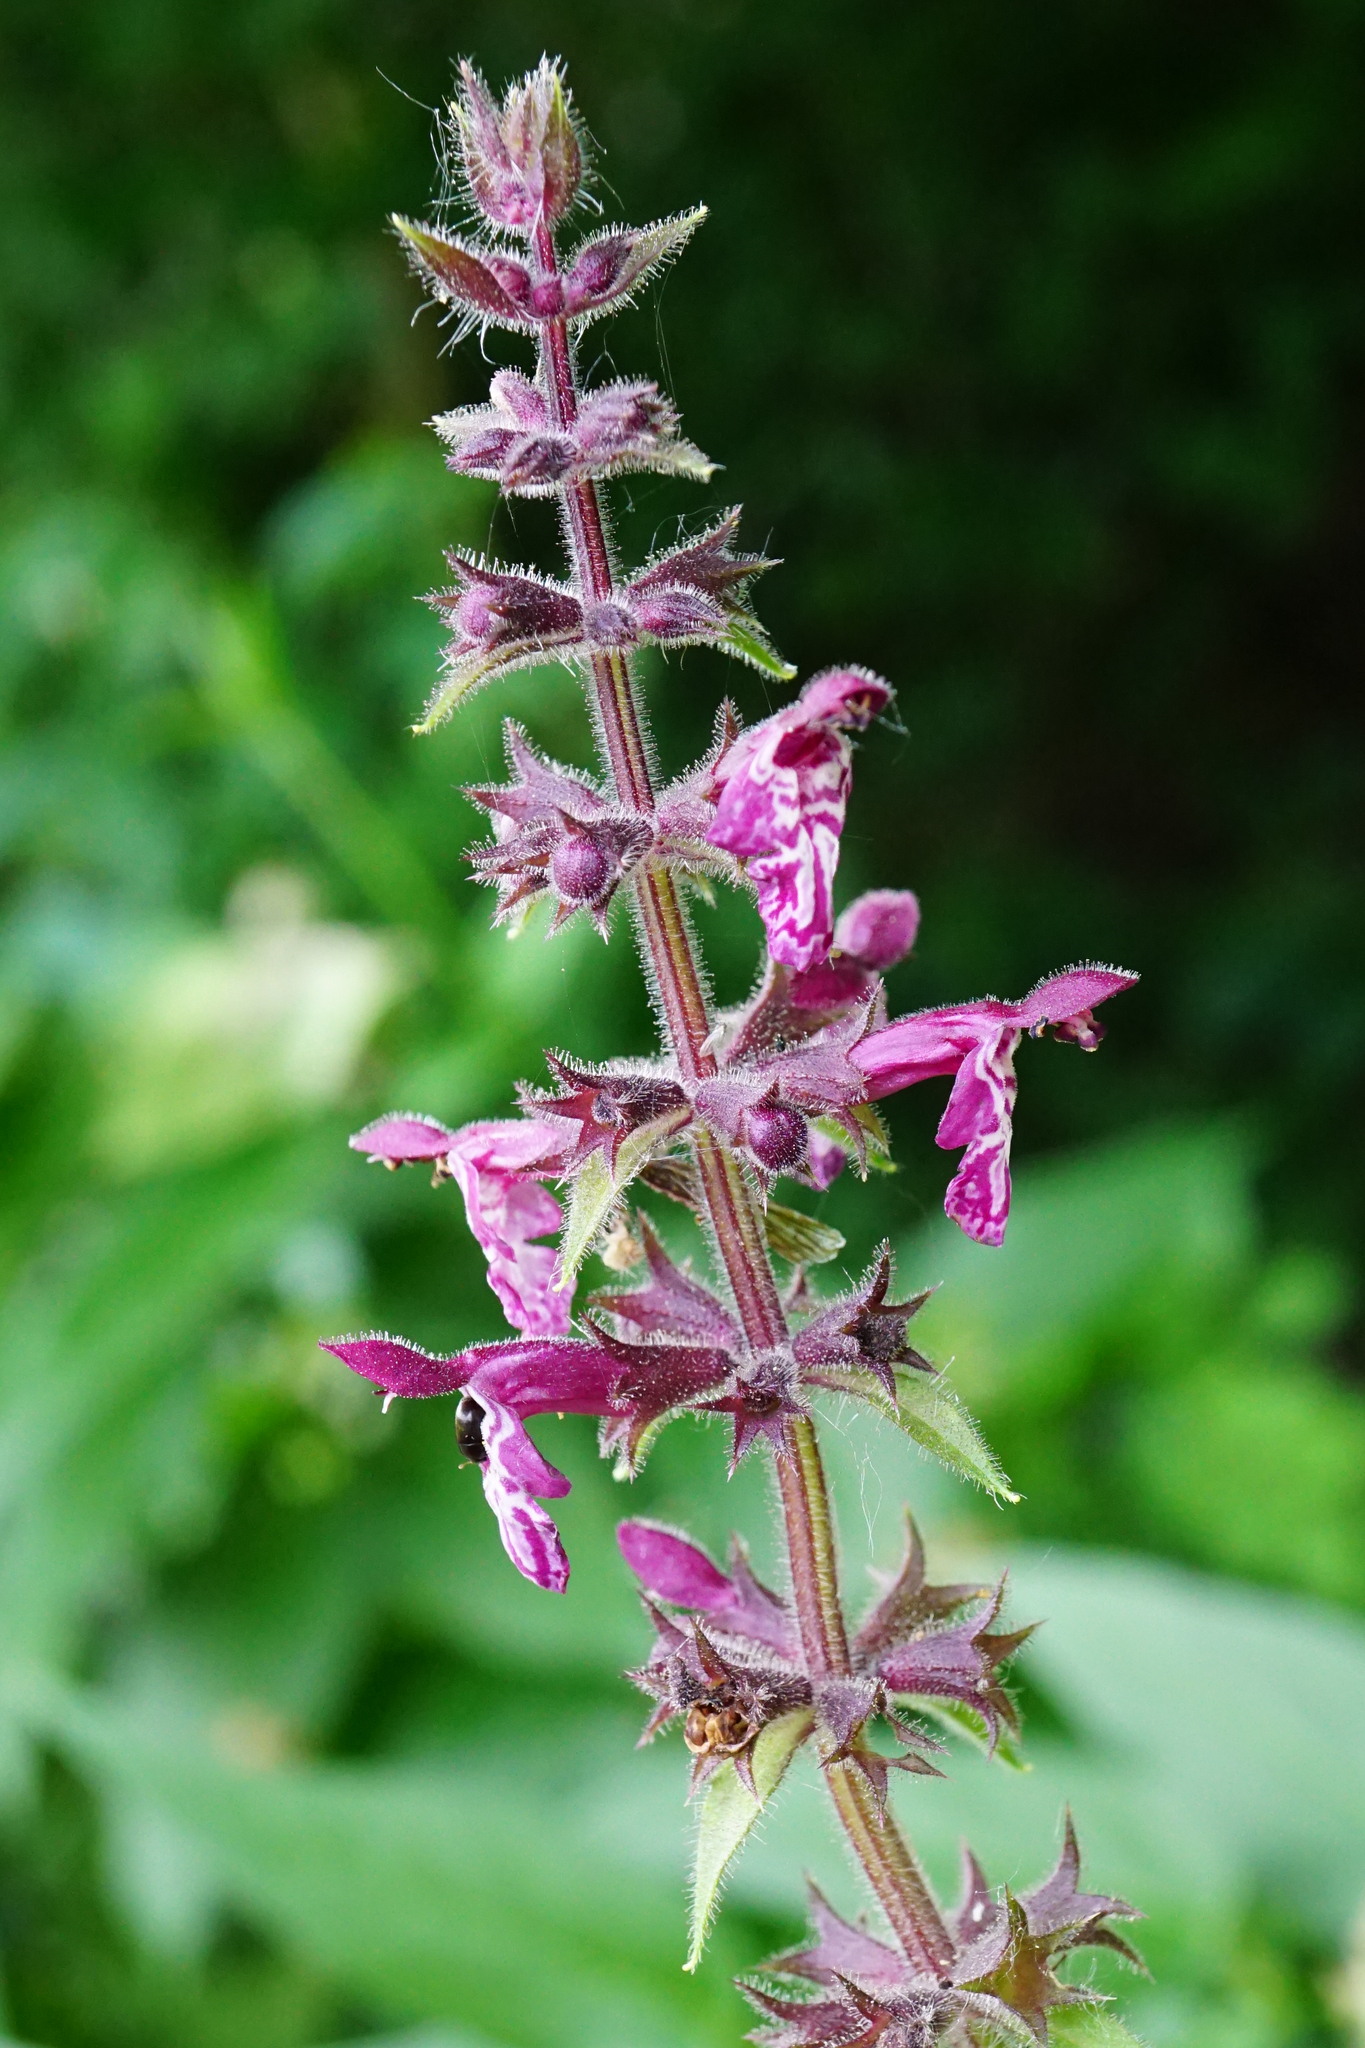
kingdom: Plantae
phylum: Tracheophyta
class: Magnoliopsida
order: Lamiales
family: Lamiaceae
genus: Stachys
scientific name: Stachys sylvatica
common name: Hedge woundwort
